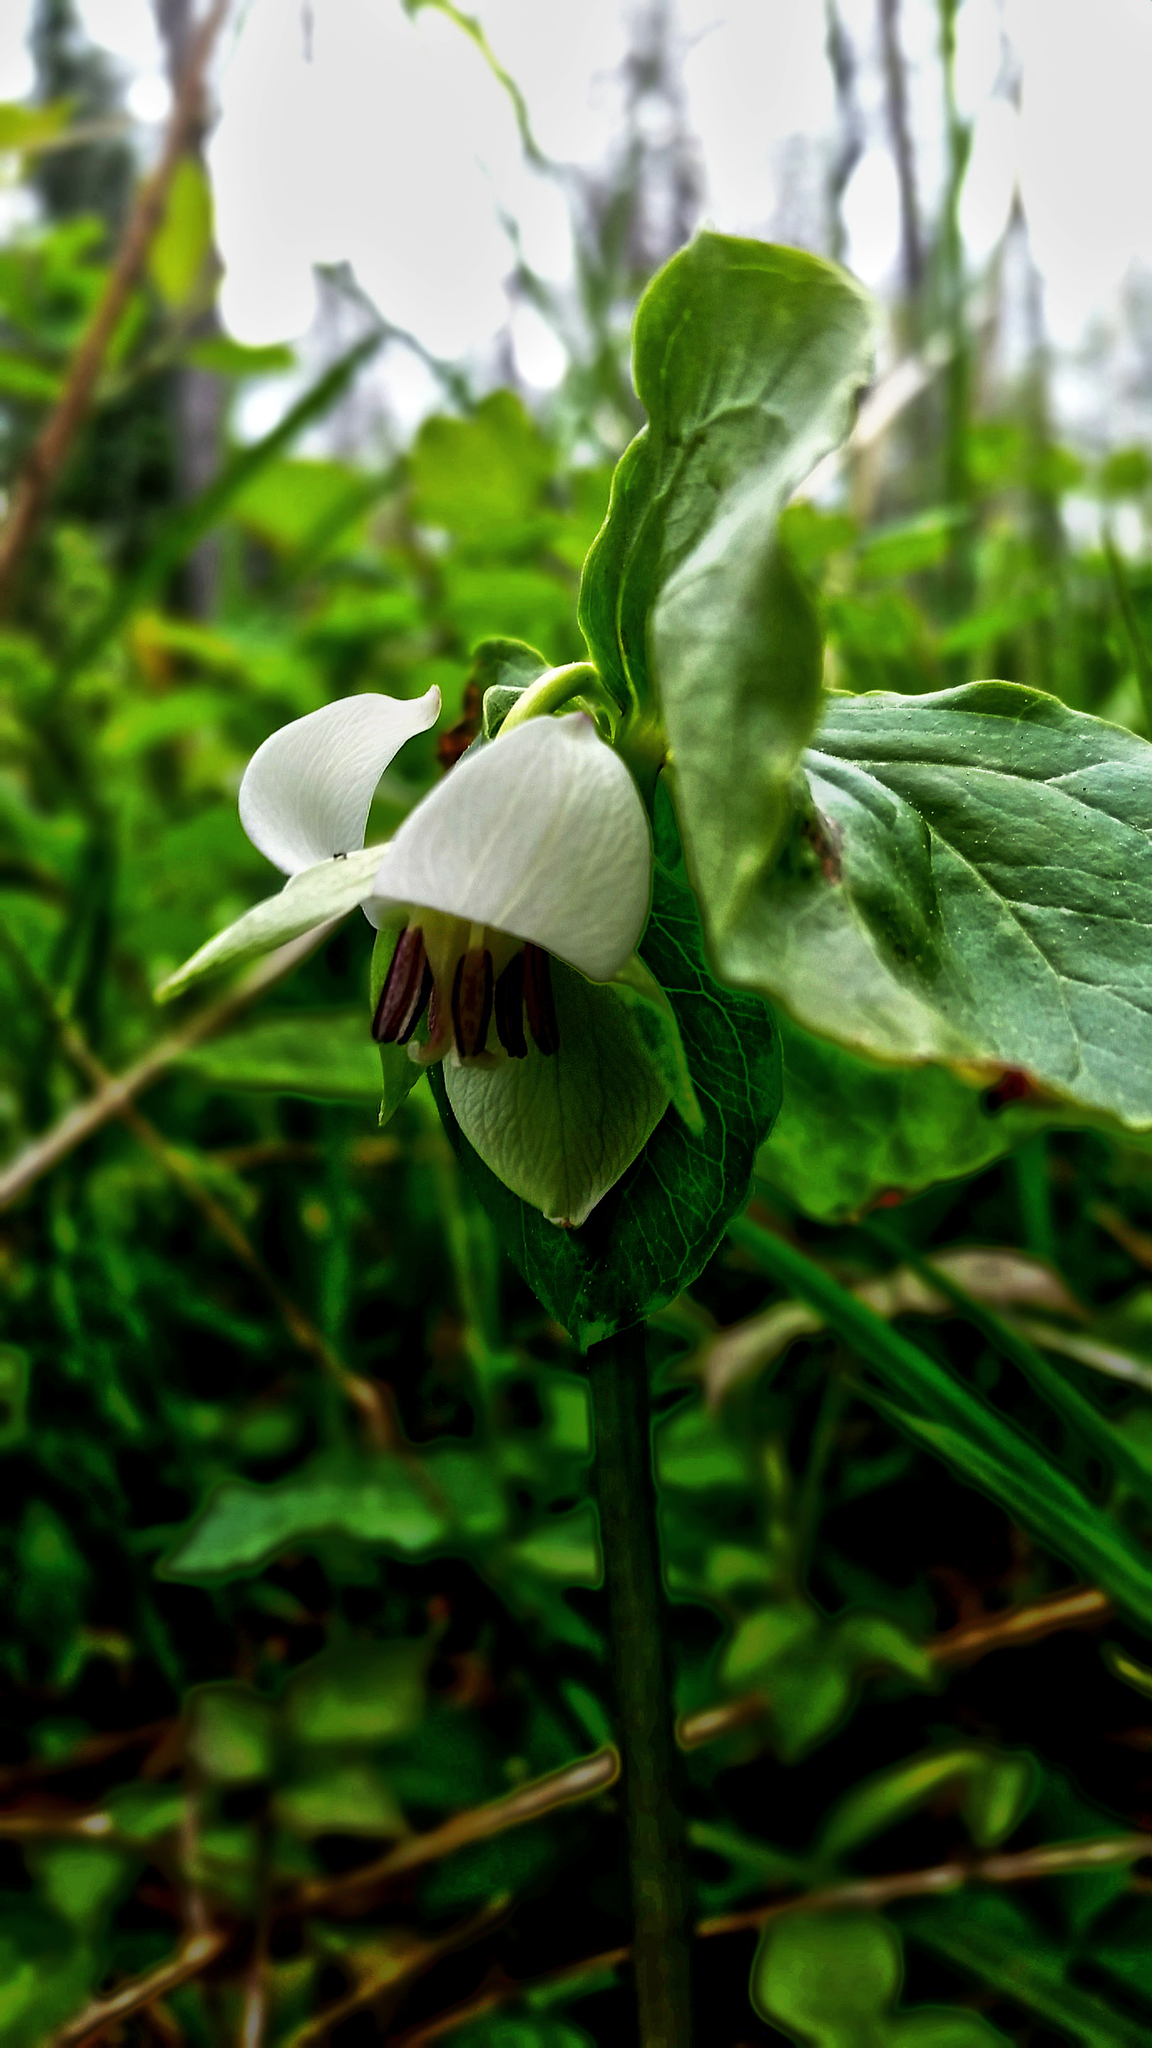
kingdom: Plantae
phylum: Tracheophyta
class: Liliopsida
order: Liliales
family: Melanthiaceae
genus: Trillium
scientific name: Trillium cernuum
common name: Nodding trillium
